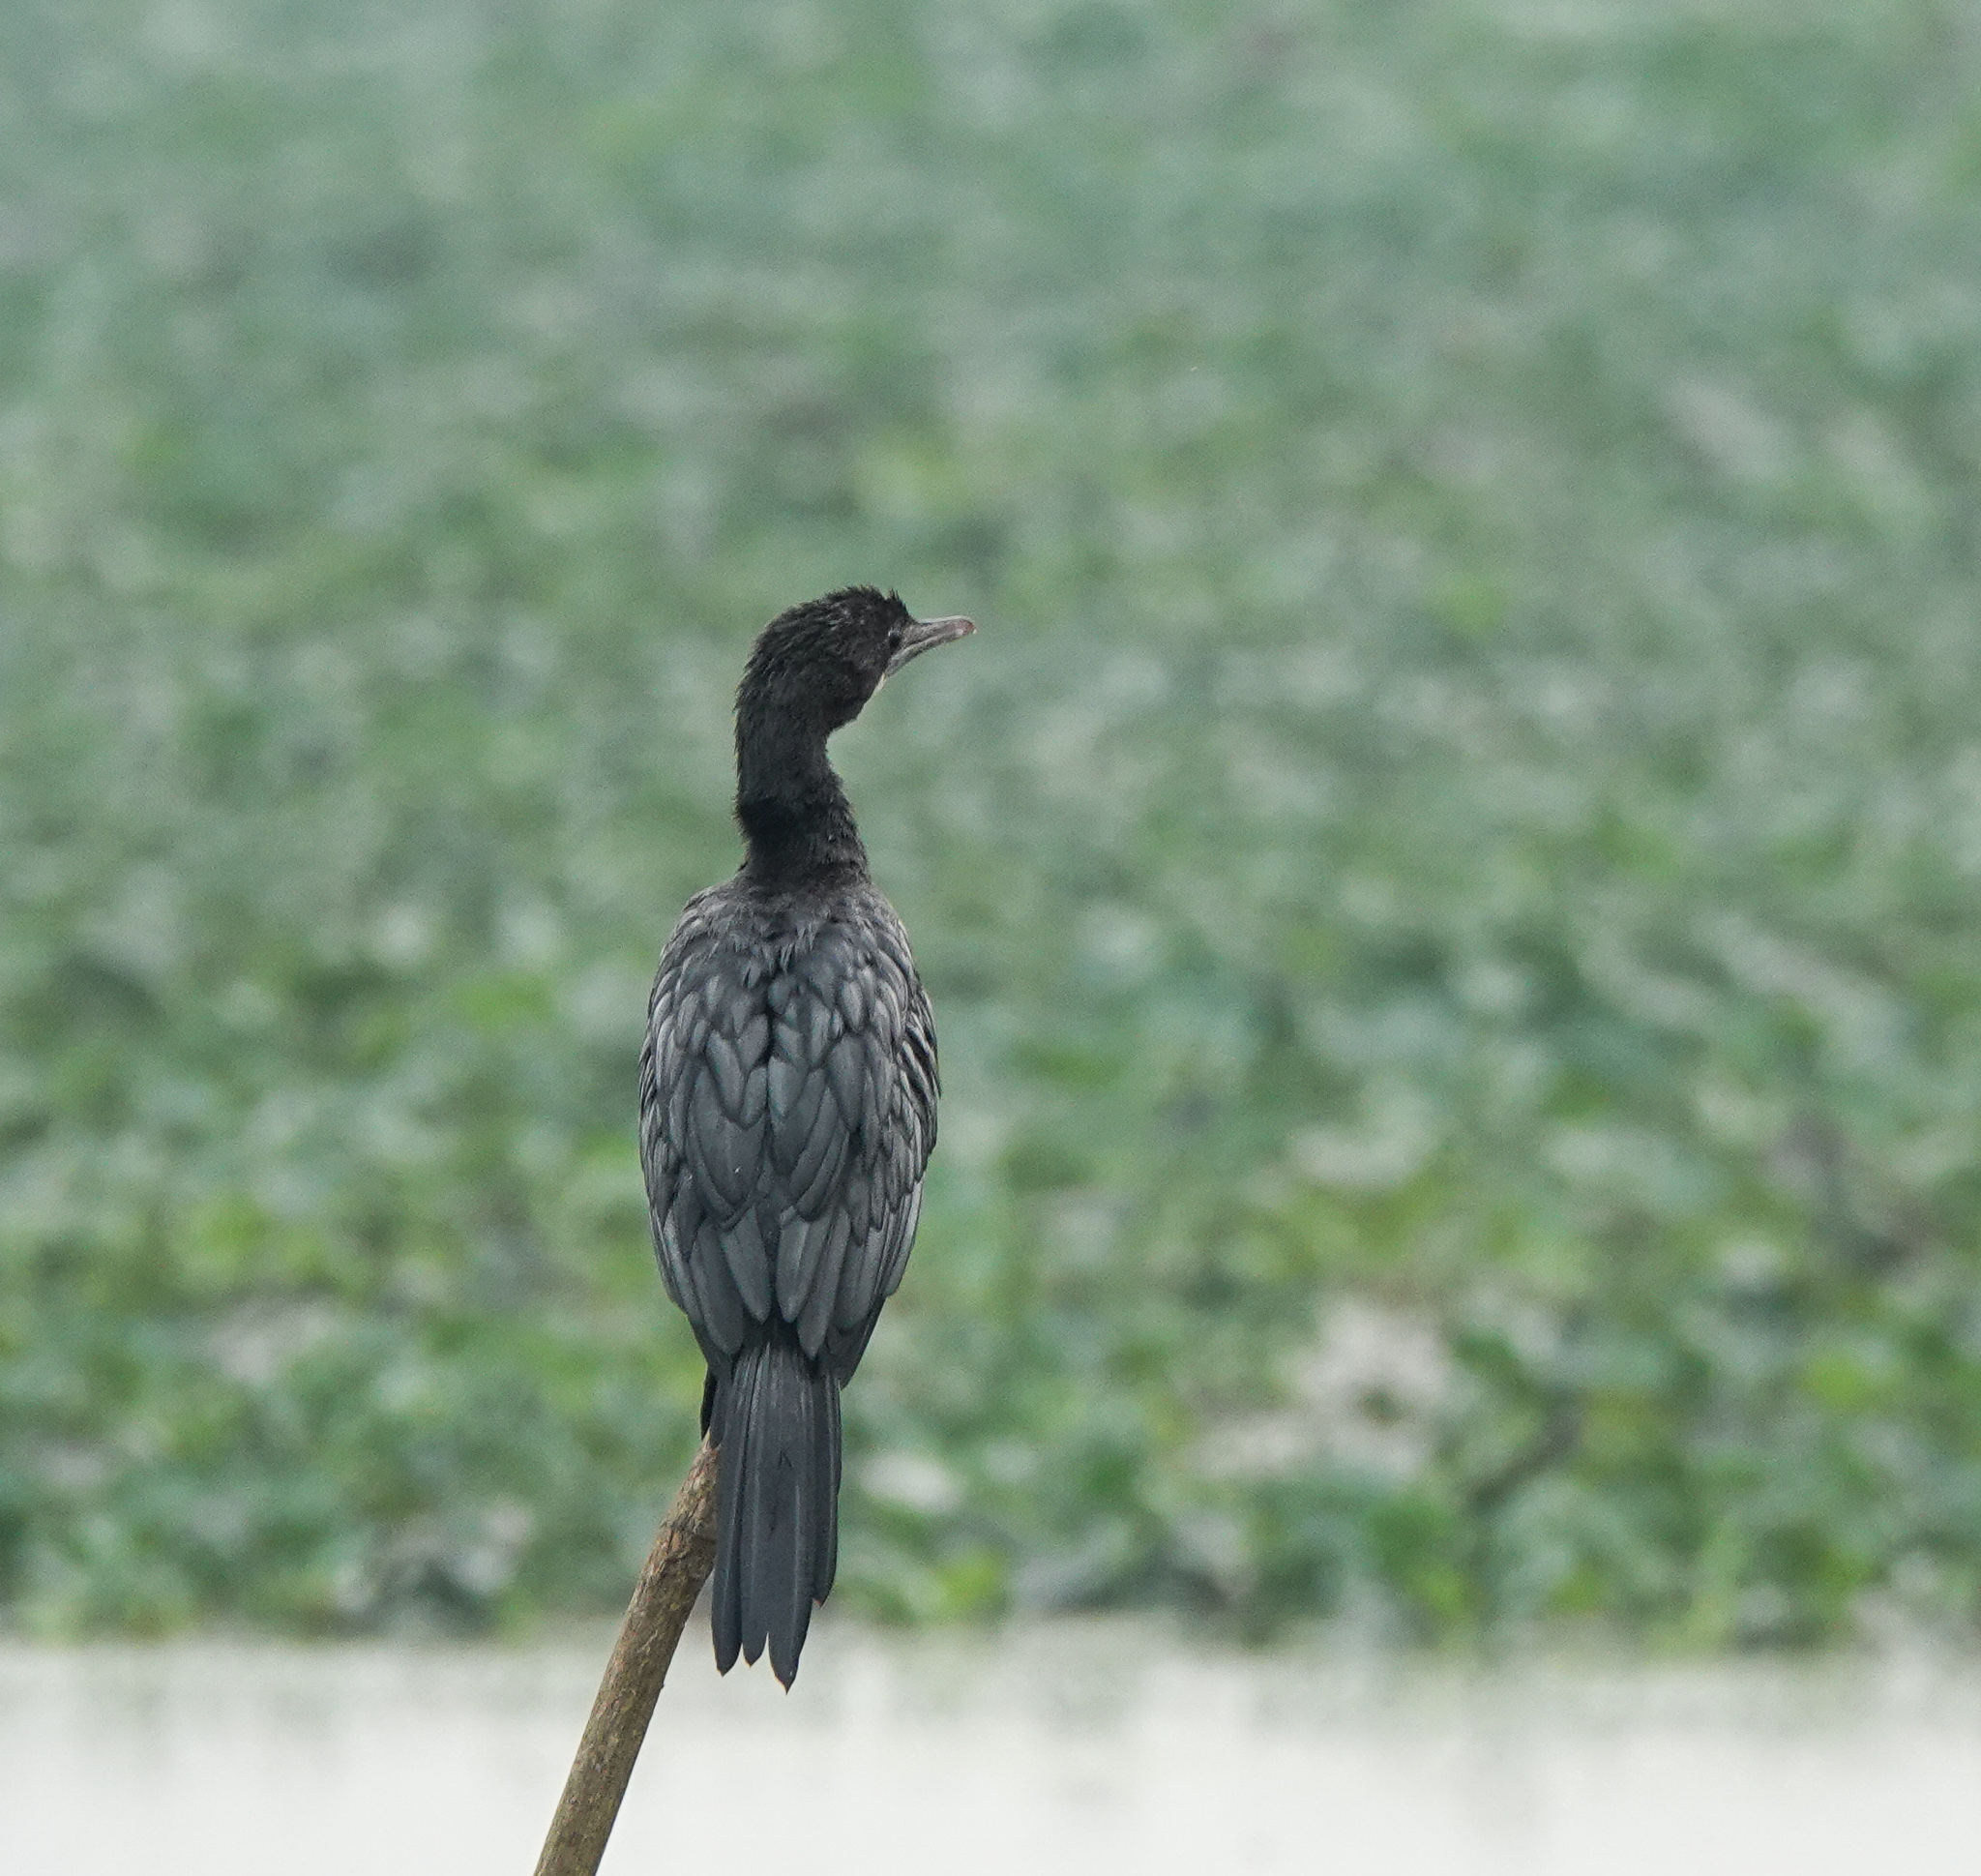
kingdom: Animalia
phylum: Chordata
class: Aves
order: Suliformes
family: Phalacrocoracidae
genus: Microcarbo
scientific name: Microcarbo niger
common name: Little cormorant
